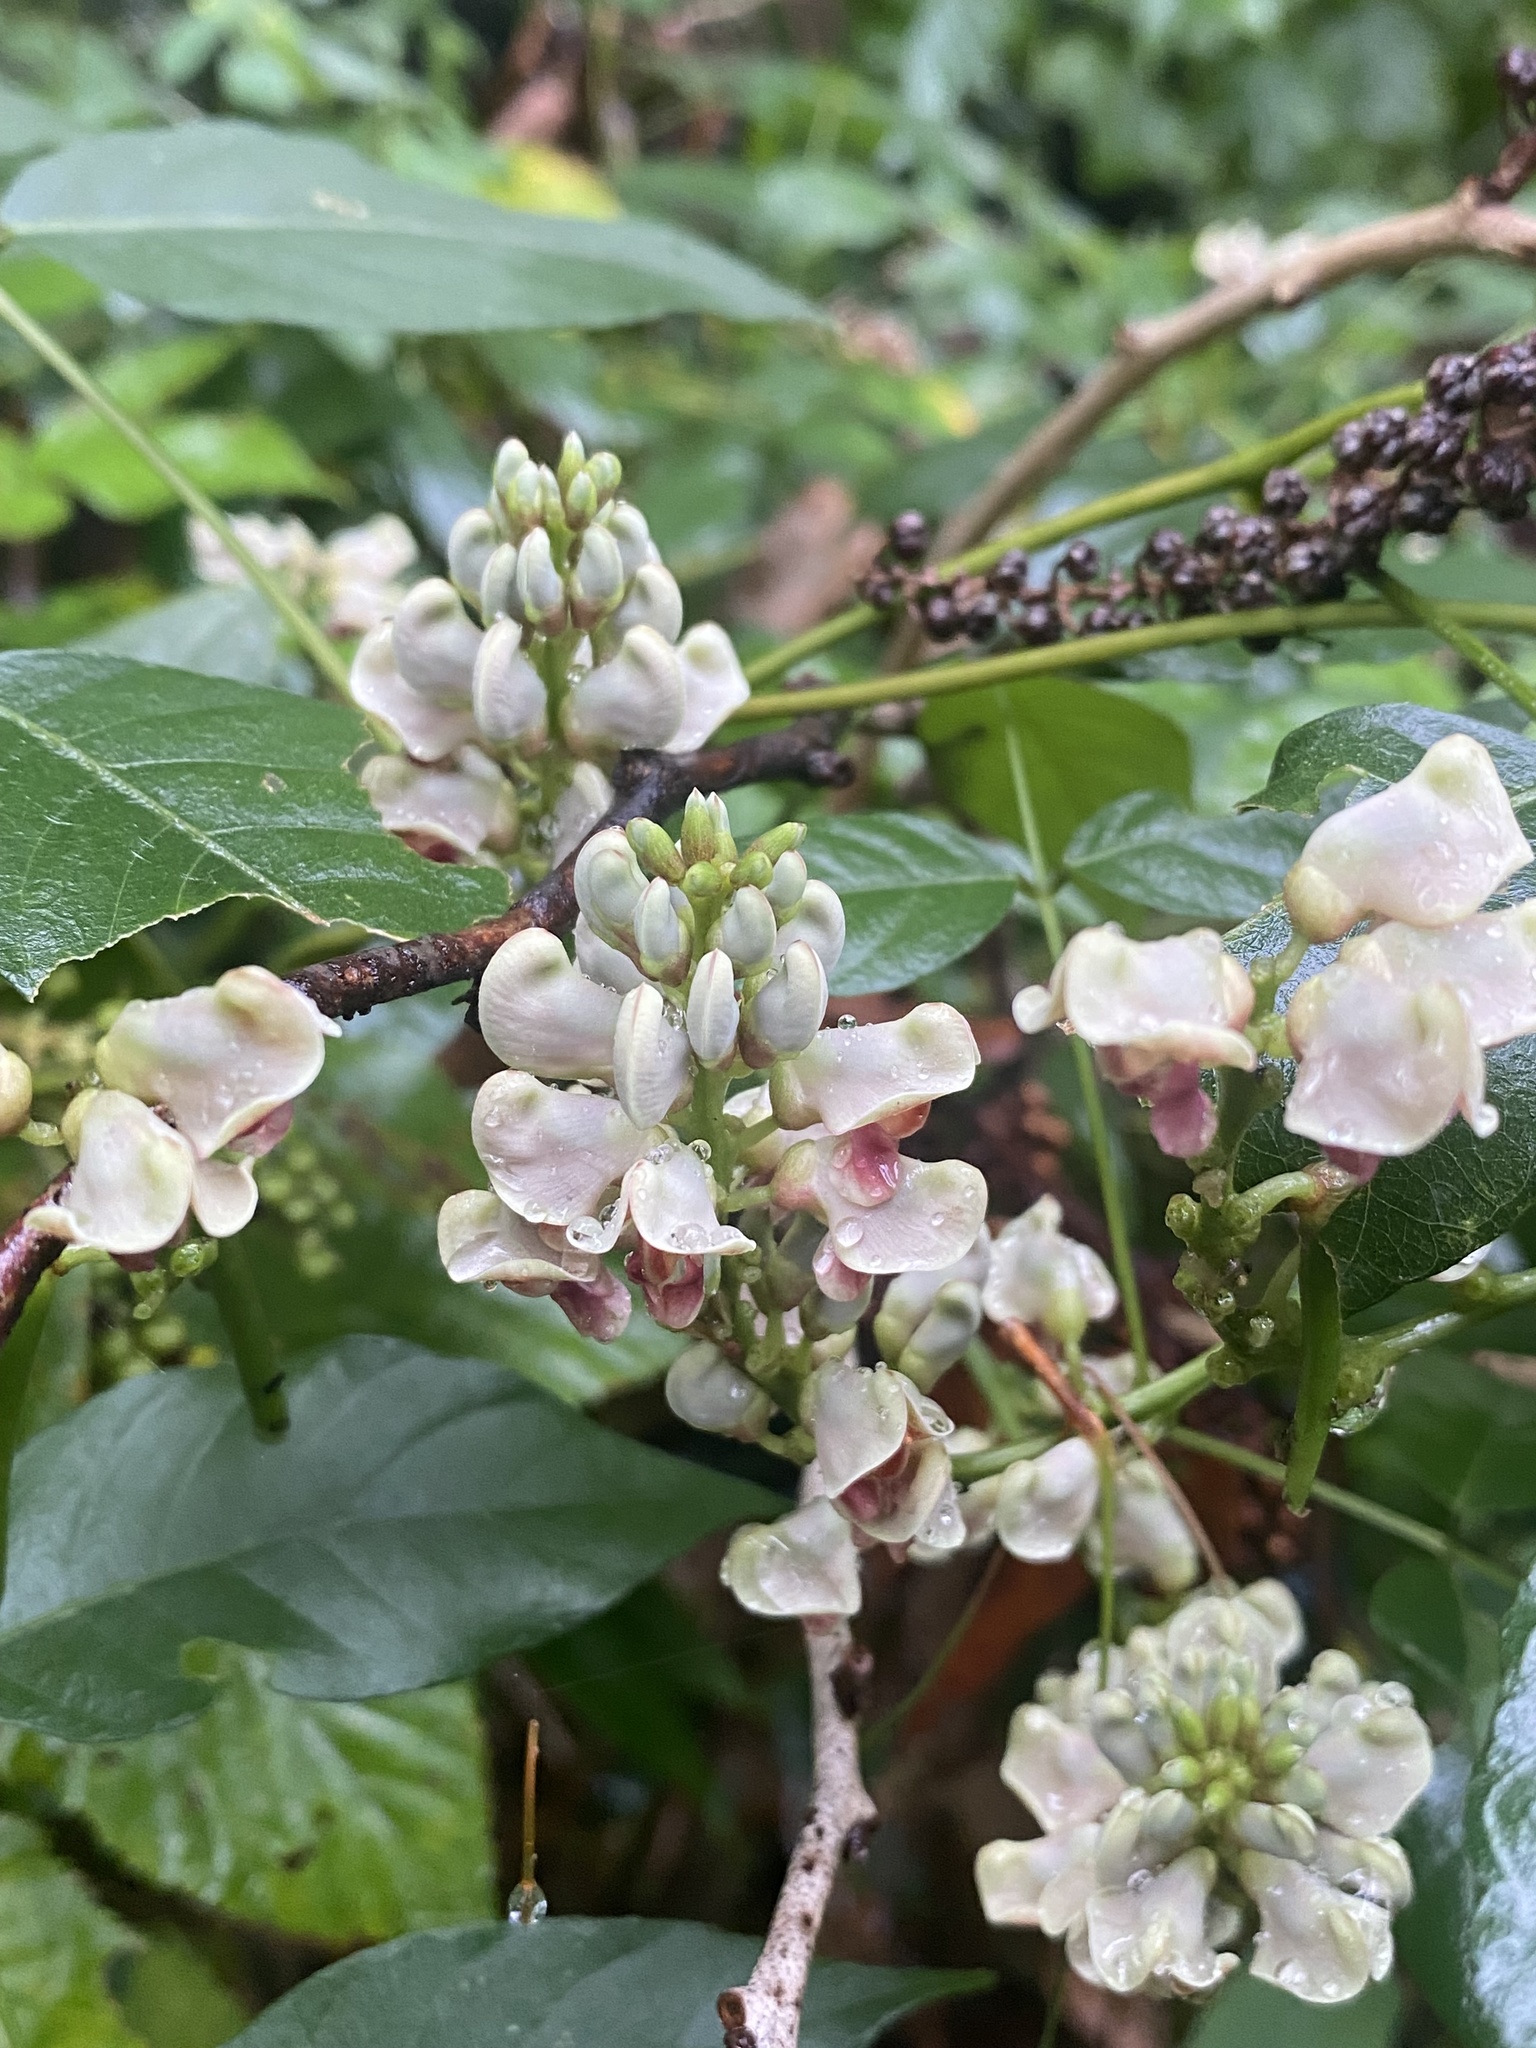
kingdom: Plantae
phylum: Tracheophyta
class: Magnoliopsida
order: Fabales
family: Fabaceae
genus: Apios
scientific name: Apios americana
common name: American potato-bean
